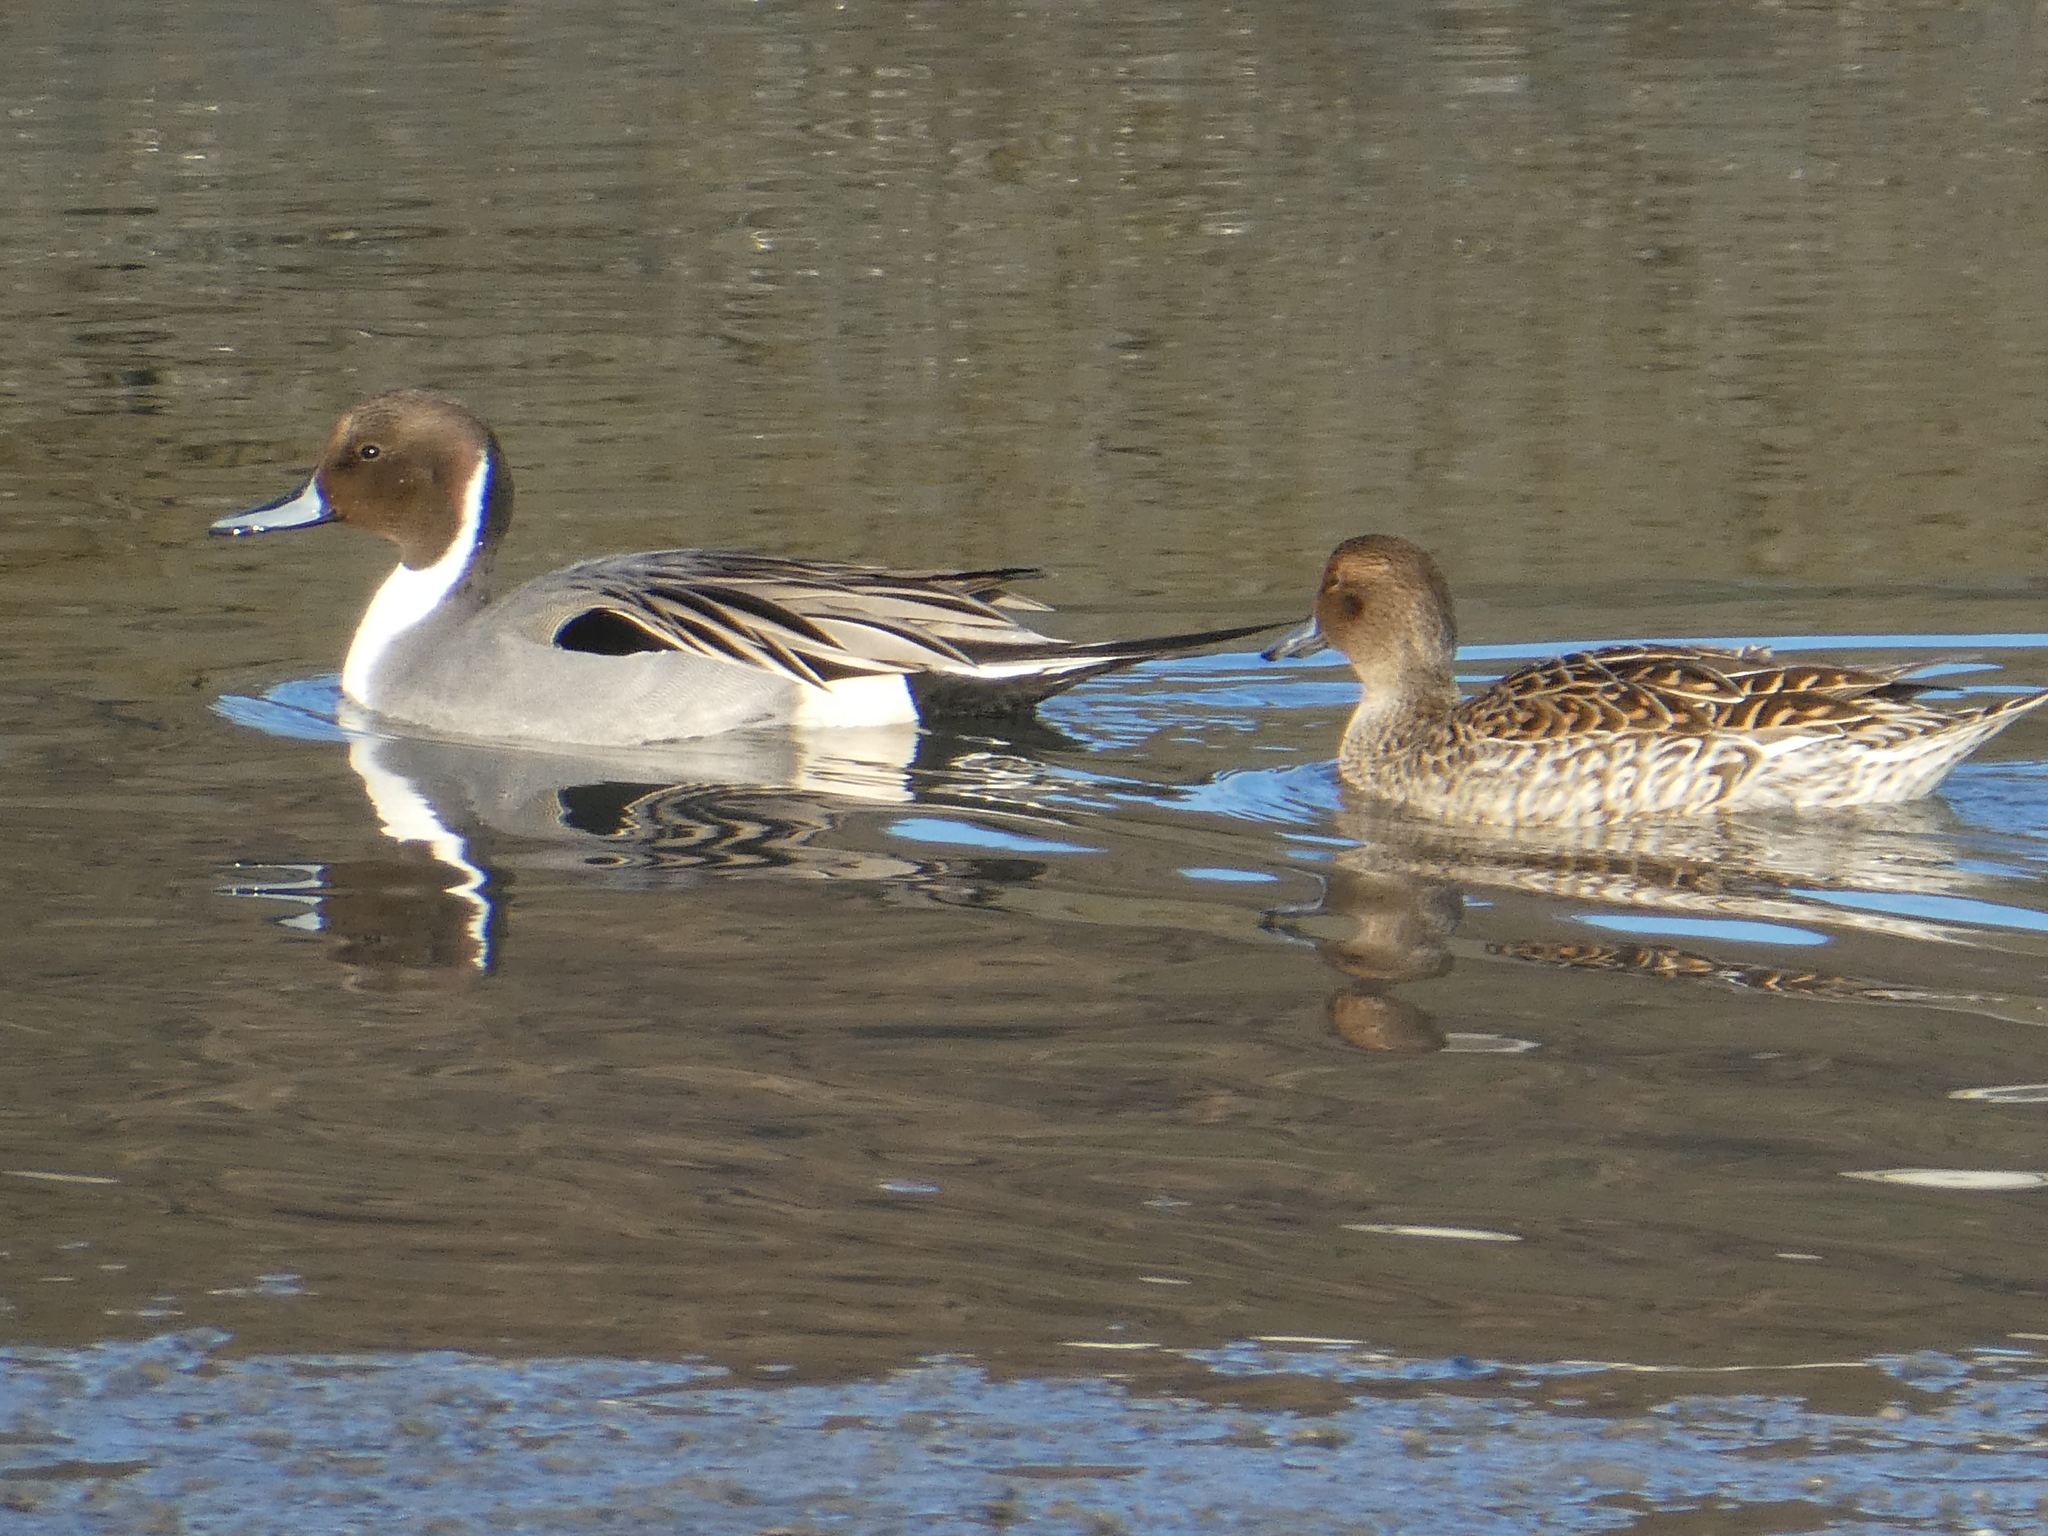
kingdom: Animalia
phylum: Chordata
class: Aves
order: Anseriformes
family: Anatidae
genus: Anas
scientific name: Anas acuta
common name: Northern pintail
